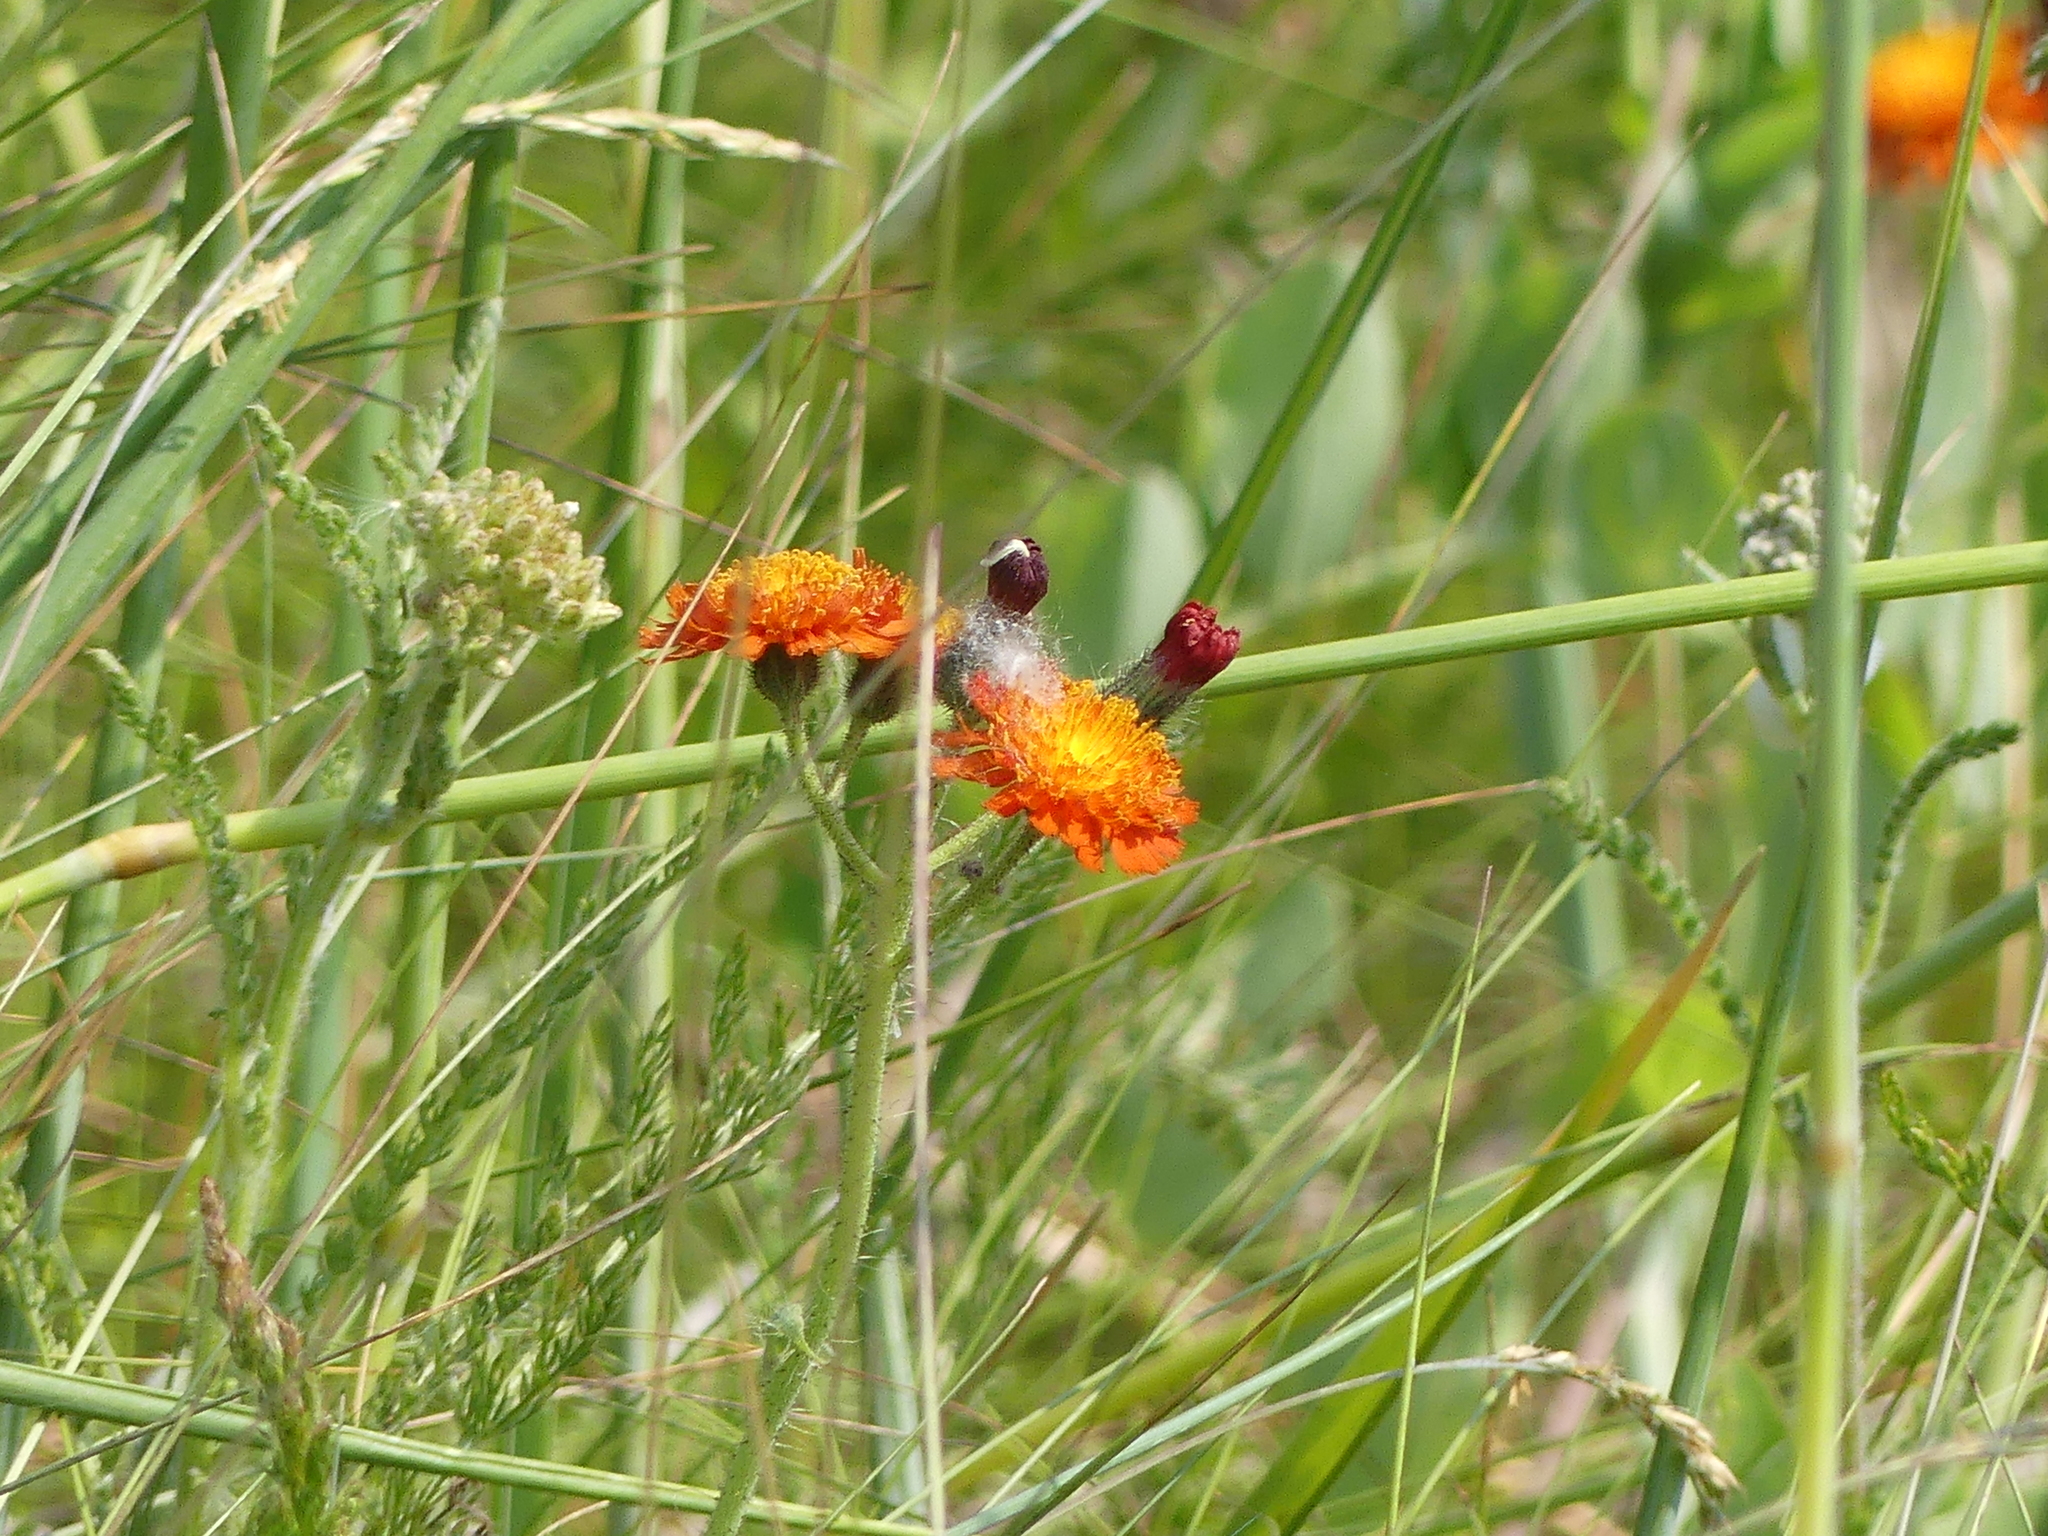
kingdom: Plantae
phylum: Tracheophyta
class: Magnoliopsida
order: Asterales
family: Asteraceae
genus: Pilosella
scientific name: Pilosella aurantiaca
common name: Fox-and-cubs
